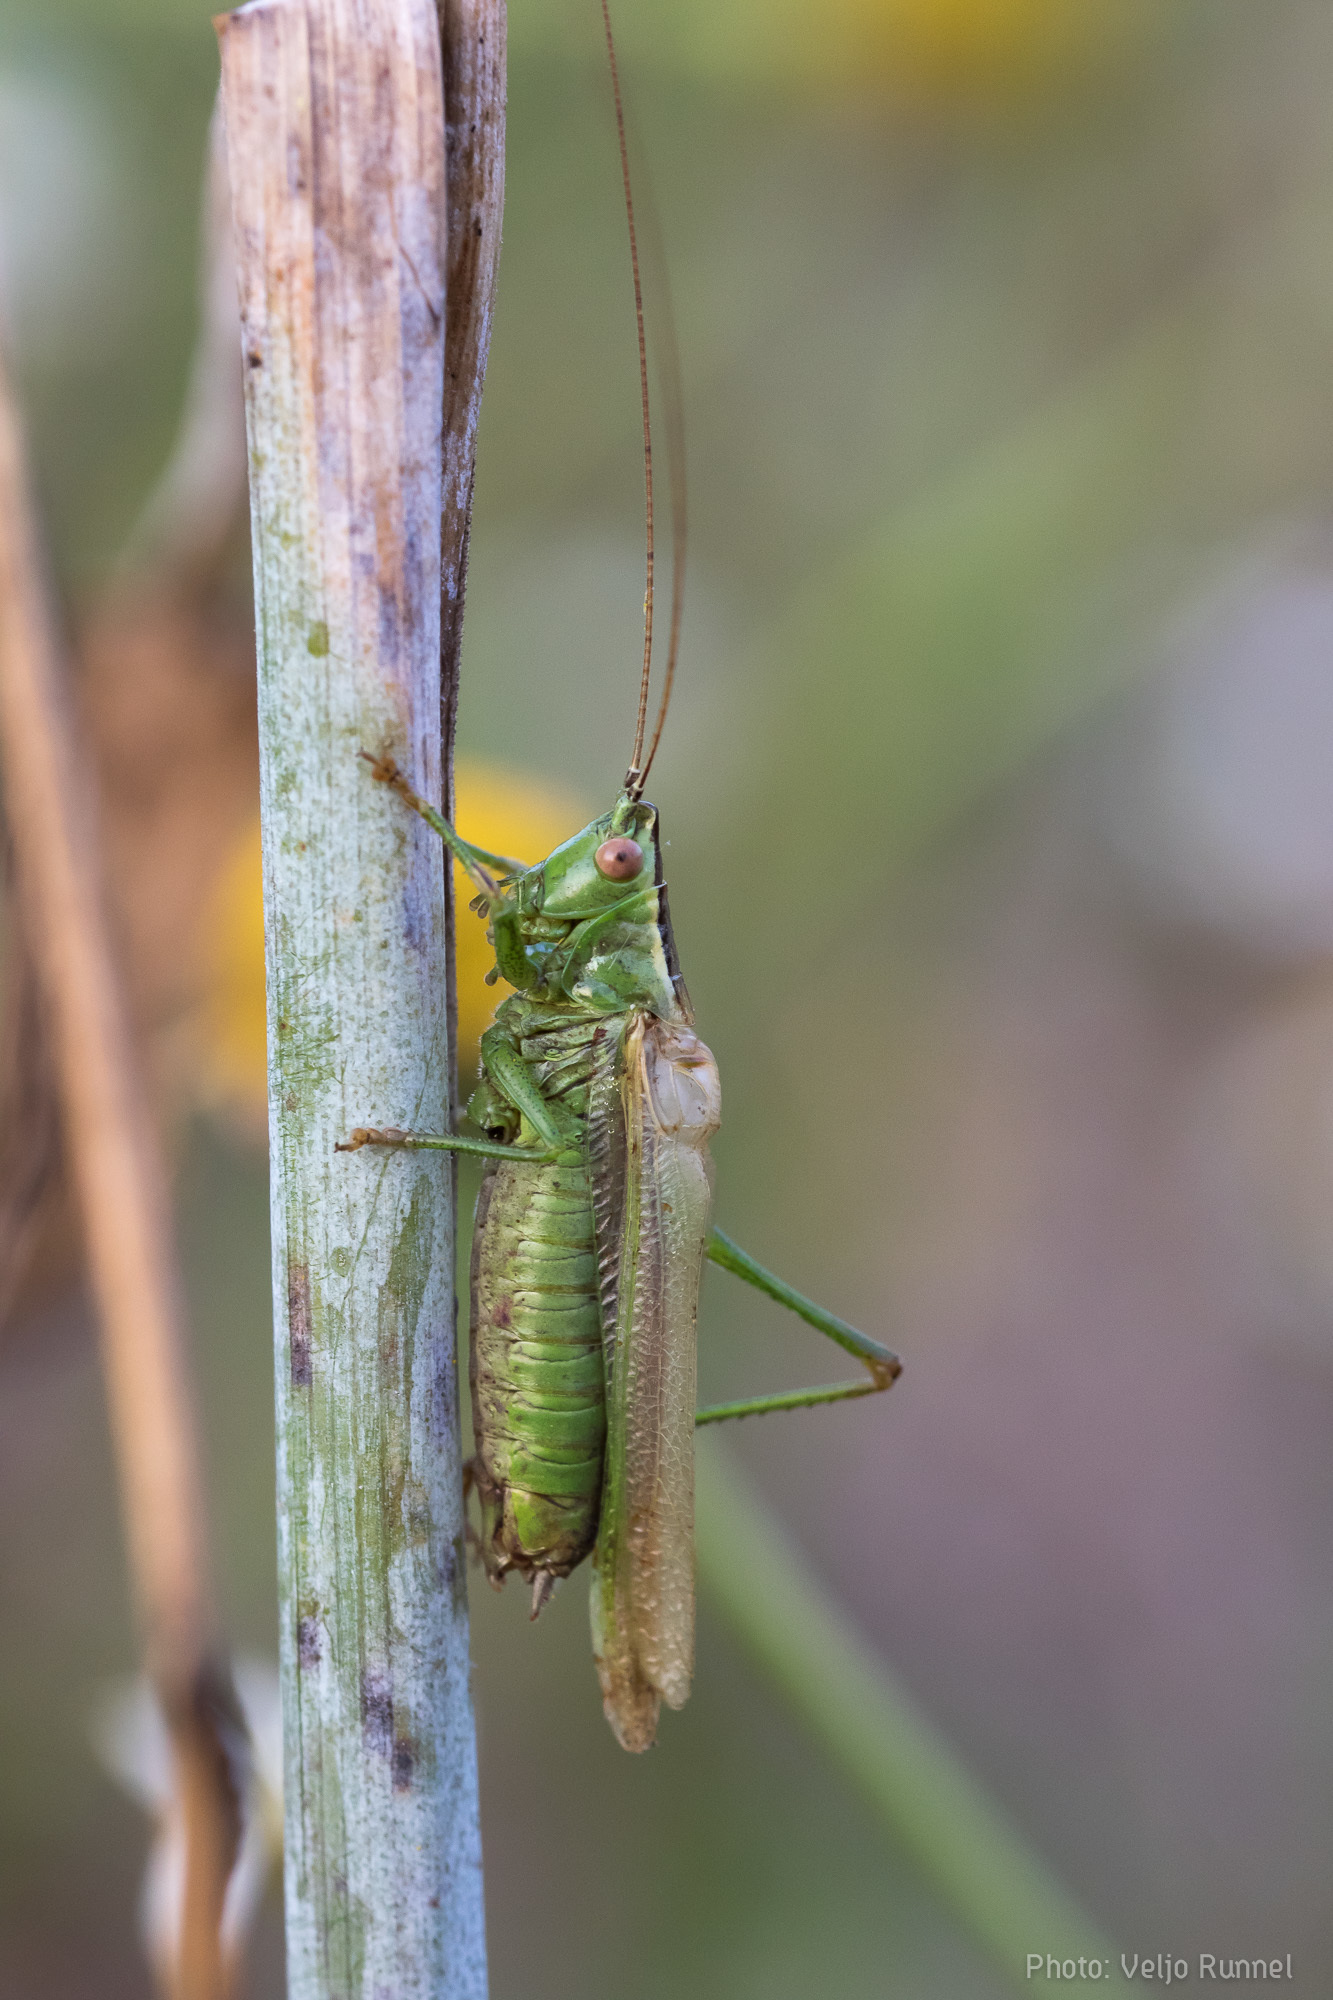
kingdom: Animalia
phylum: Arthropoda
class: Insecta
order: Orthoptera
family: Tettigoniidae
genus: Conocephalus
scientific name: Conocephalus fuscus
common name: Long-winged conehead
